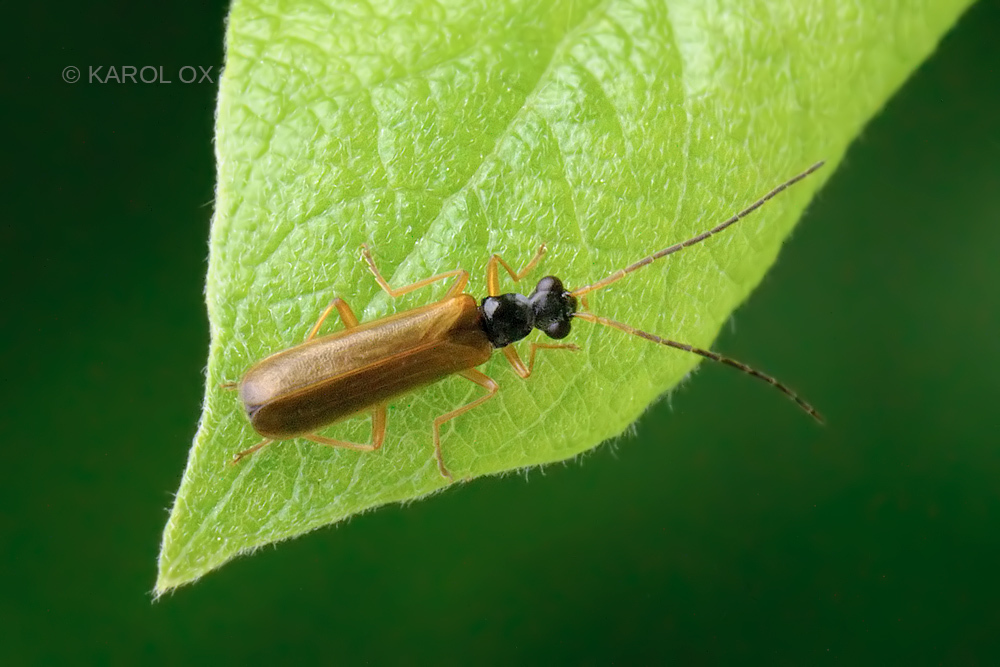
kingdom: Animalia
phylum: Arthropoda
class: Insecta
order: Coleoptera
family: Cantharidae
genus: Rhagonycha
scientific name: Rhagonycha lignosa
